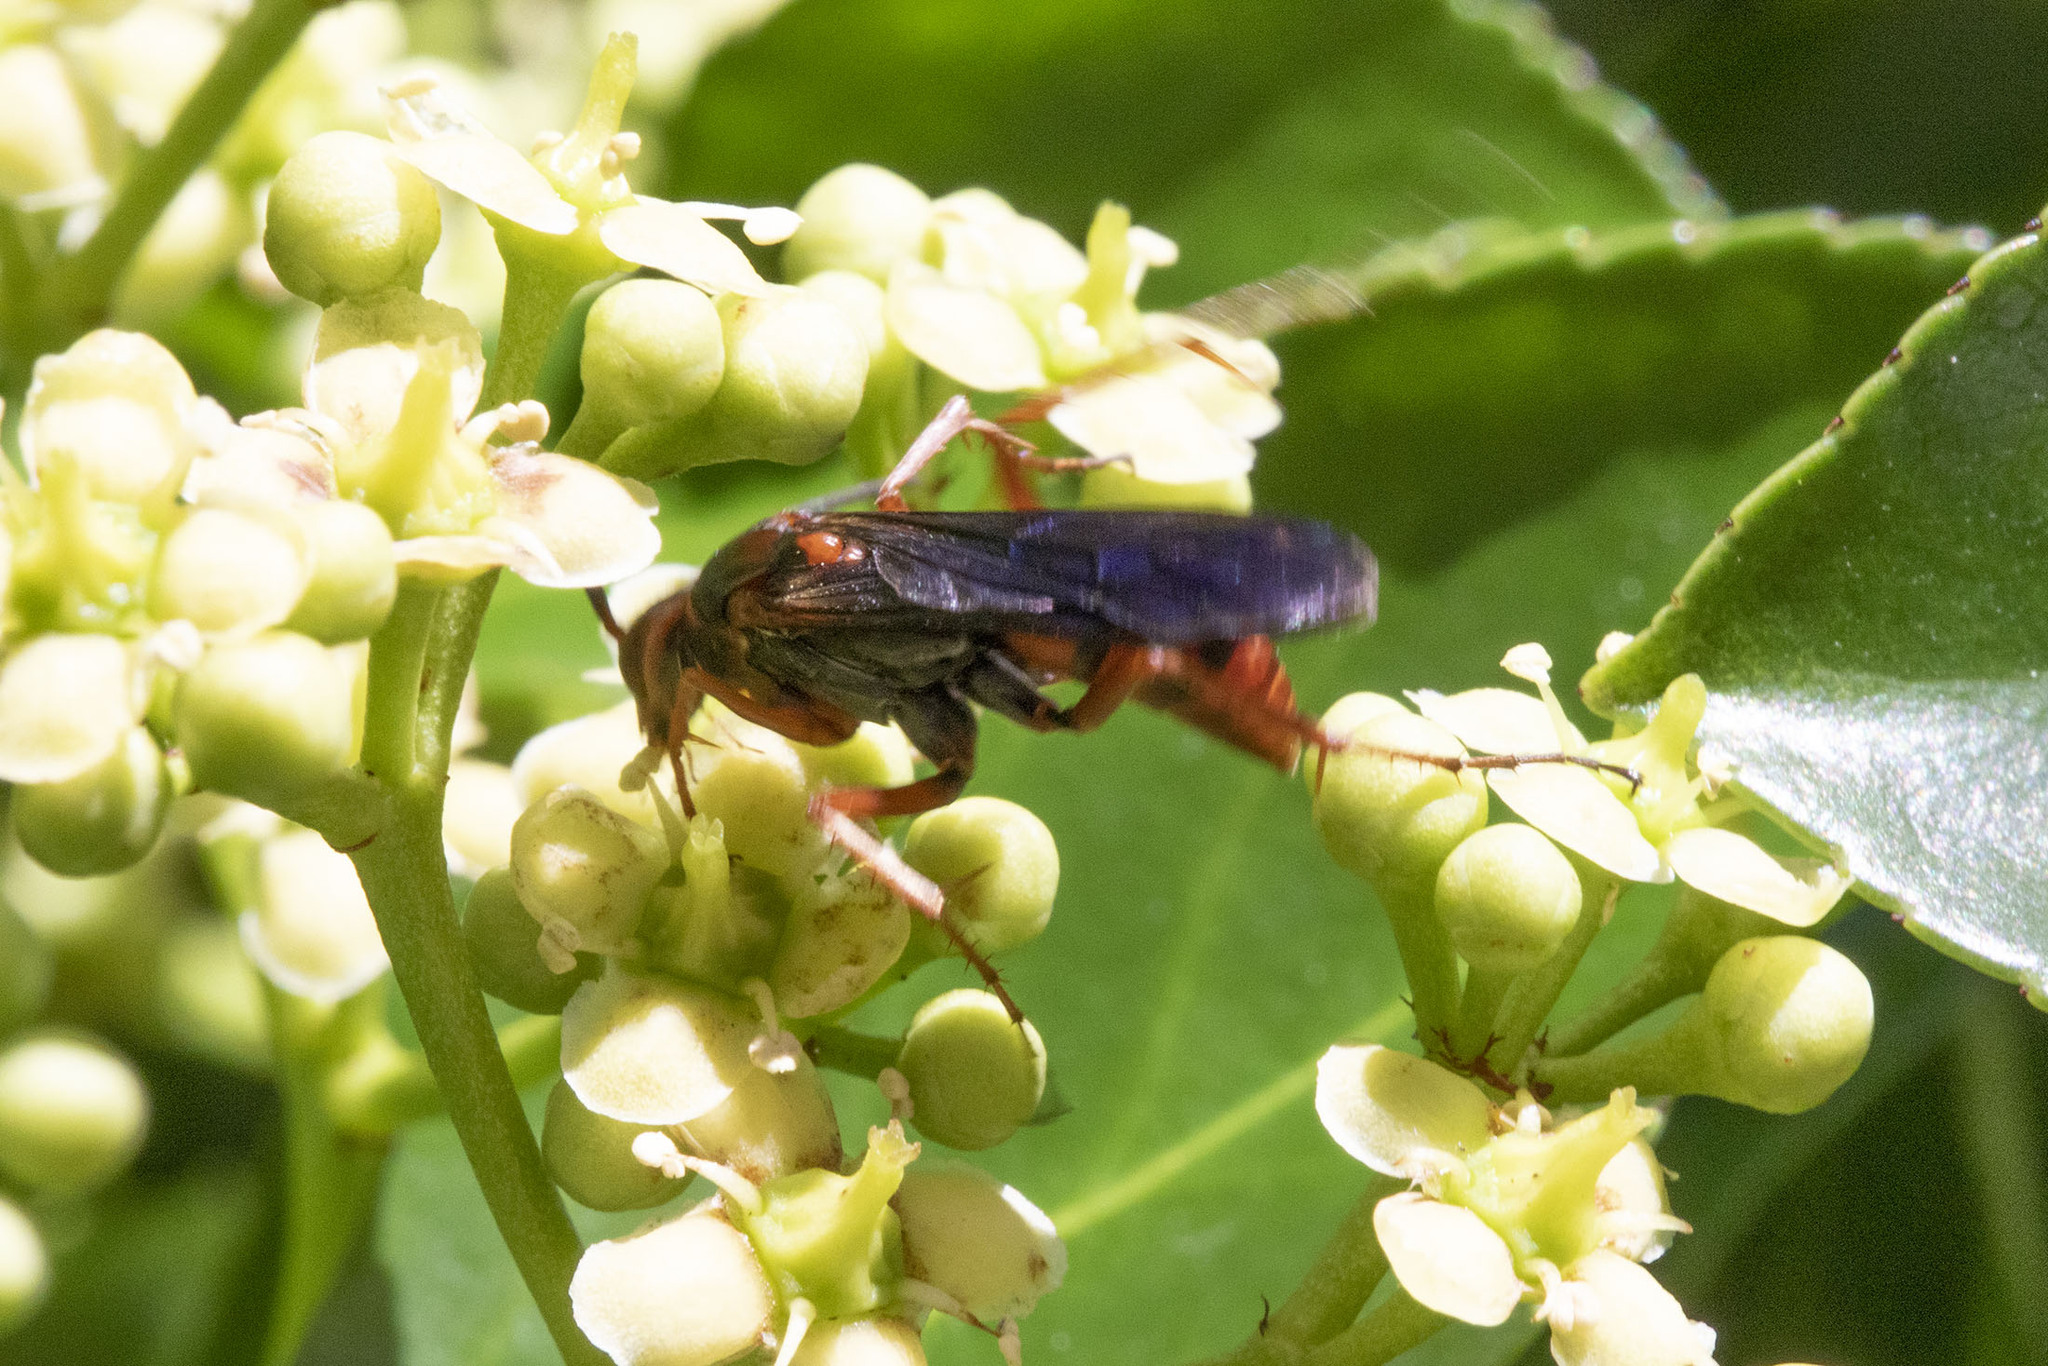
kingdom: Animalia
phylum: Arthropoda
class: Insecta
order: Hymenoptera
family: Pompilidae
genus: Tachypompilus
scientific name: Tachypompilus ferrugineus
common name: Rusty spider wasp
